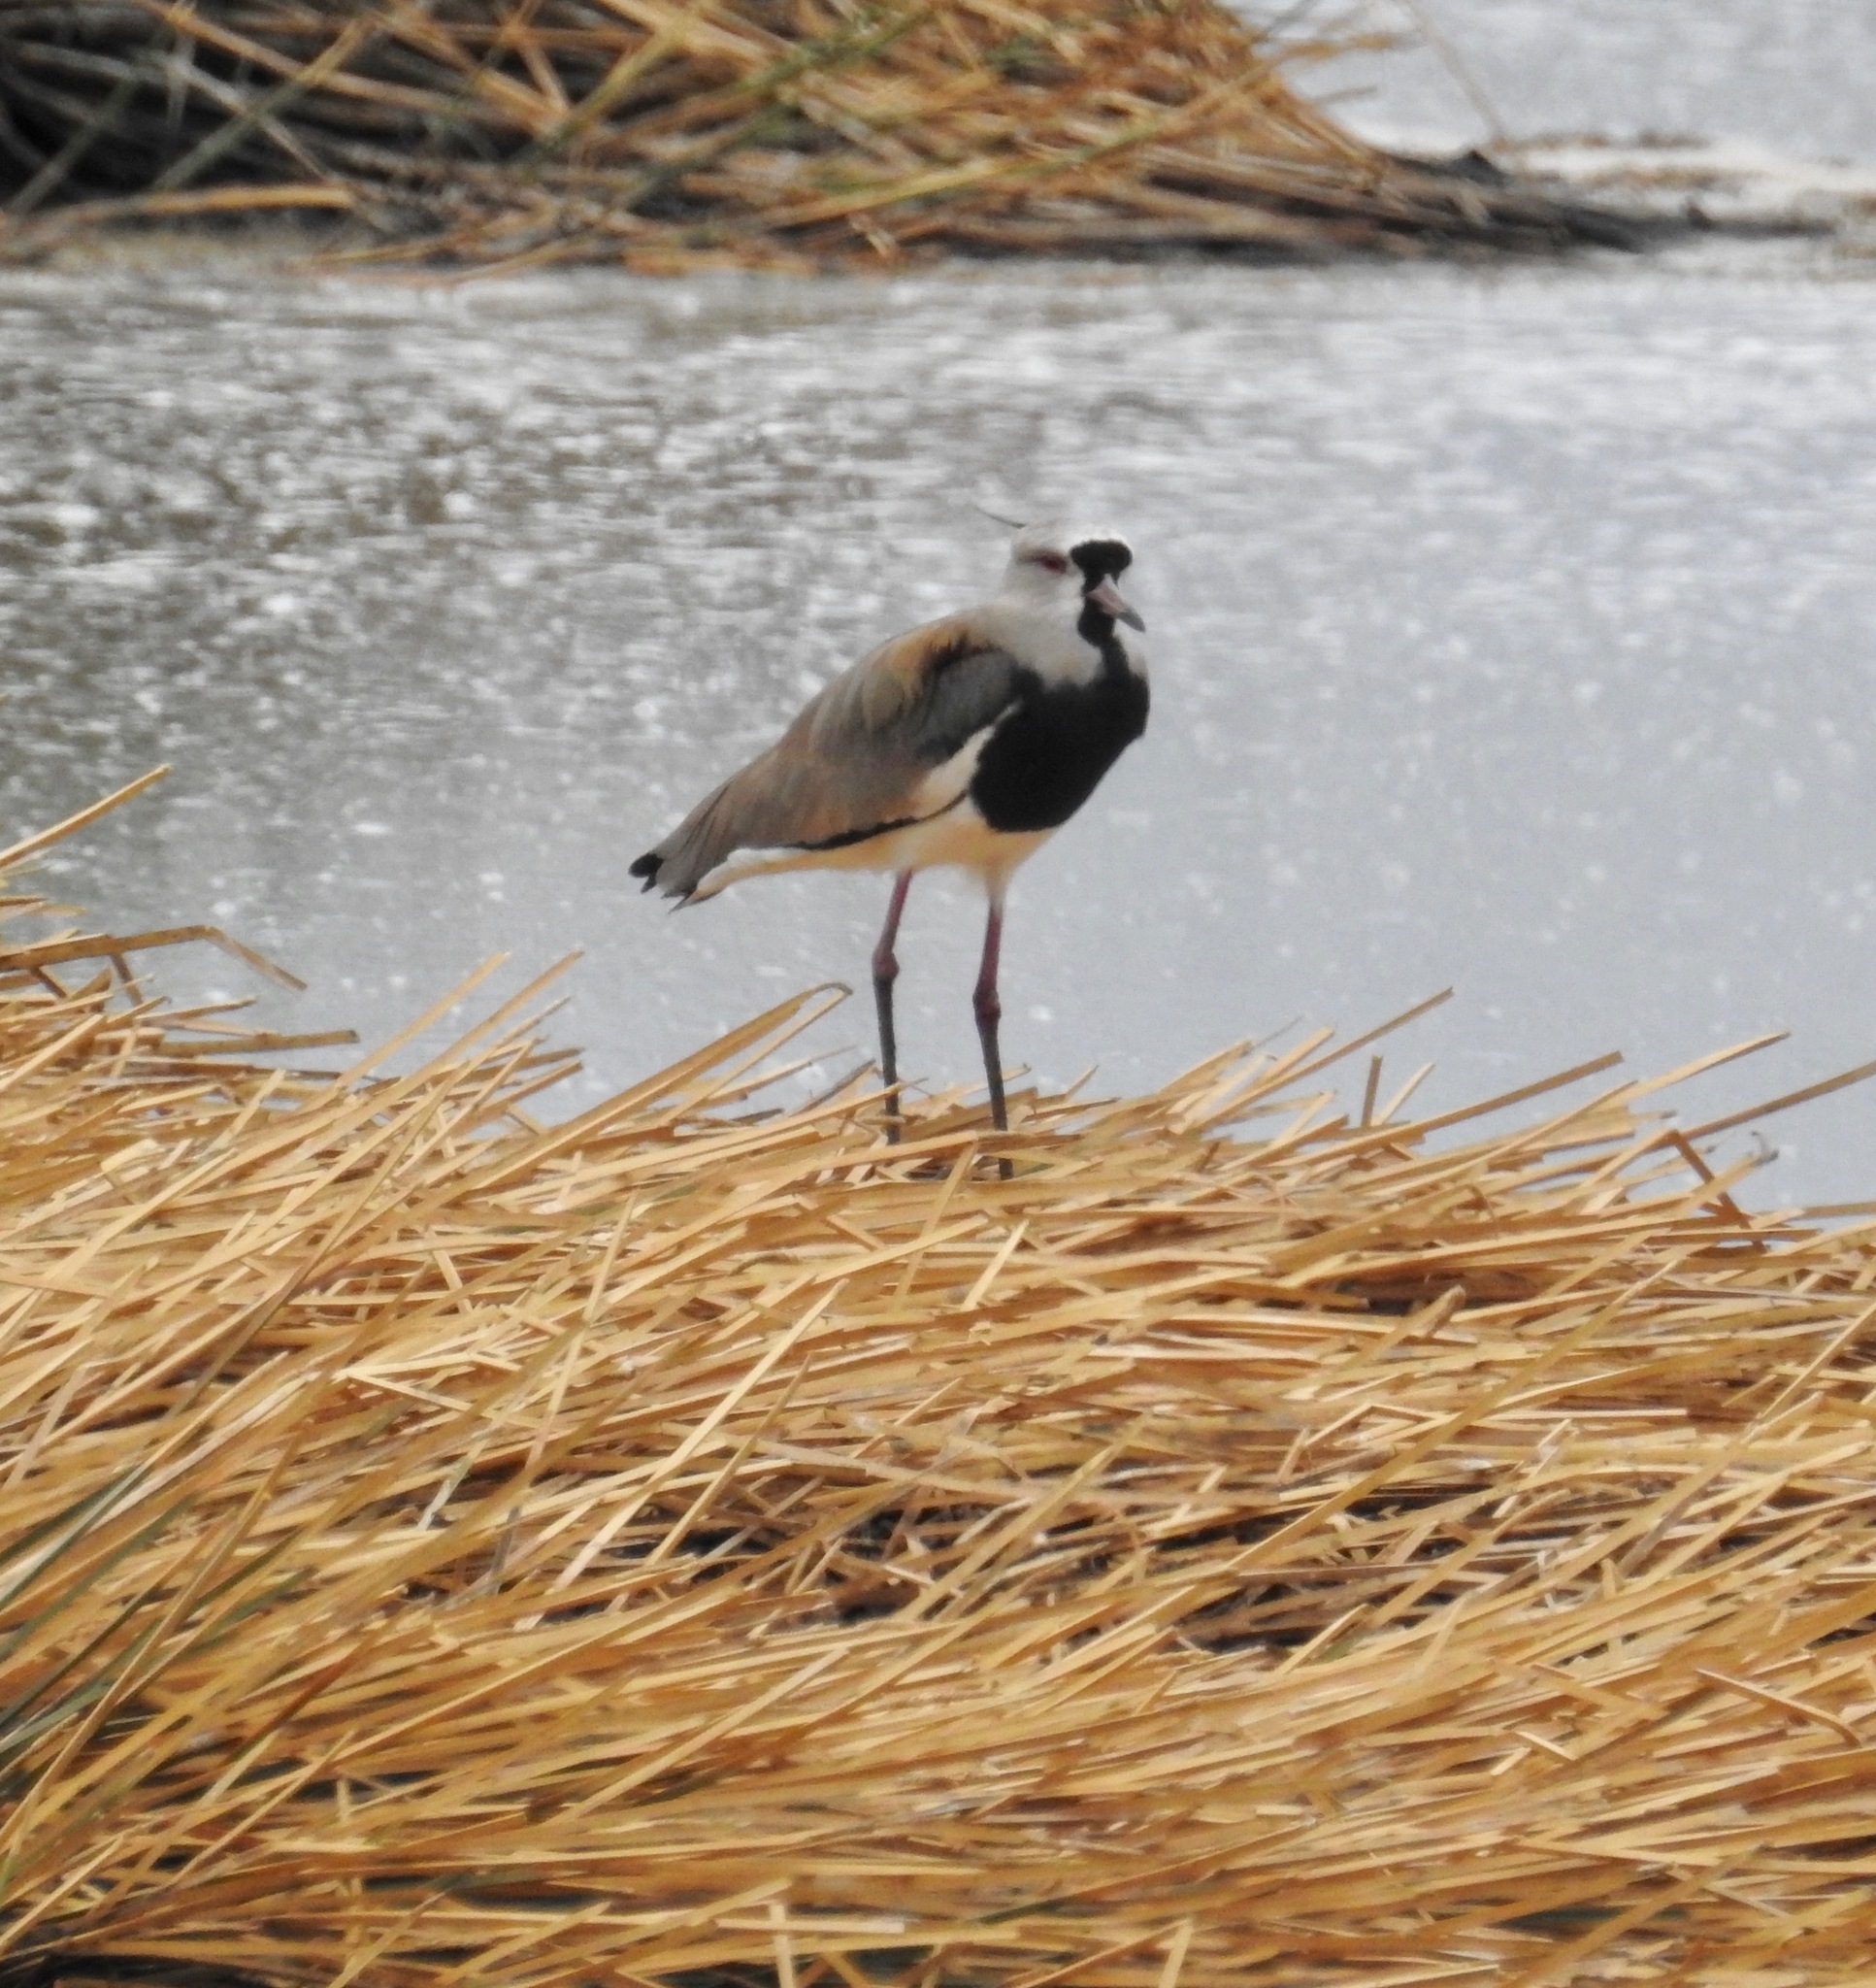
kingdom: Animalia
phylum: Chordata
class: Aves
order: Charadriiformes
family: Charadriidae
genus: Vanellus
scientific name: Vanellus chilensis
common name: Southern lapwing
